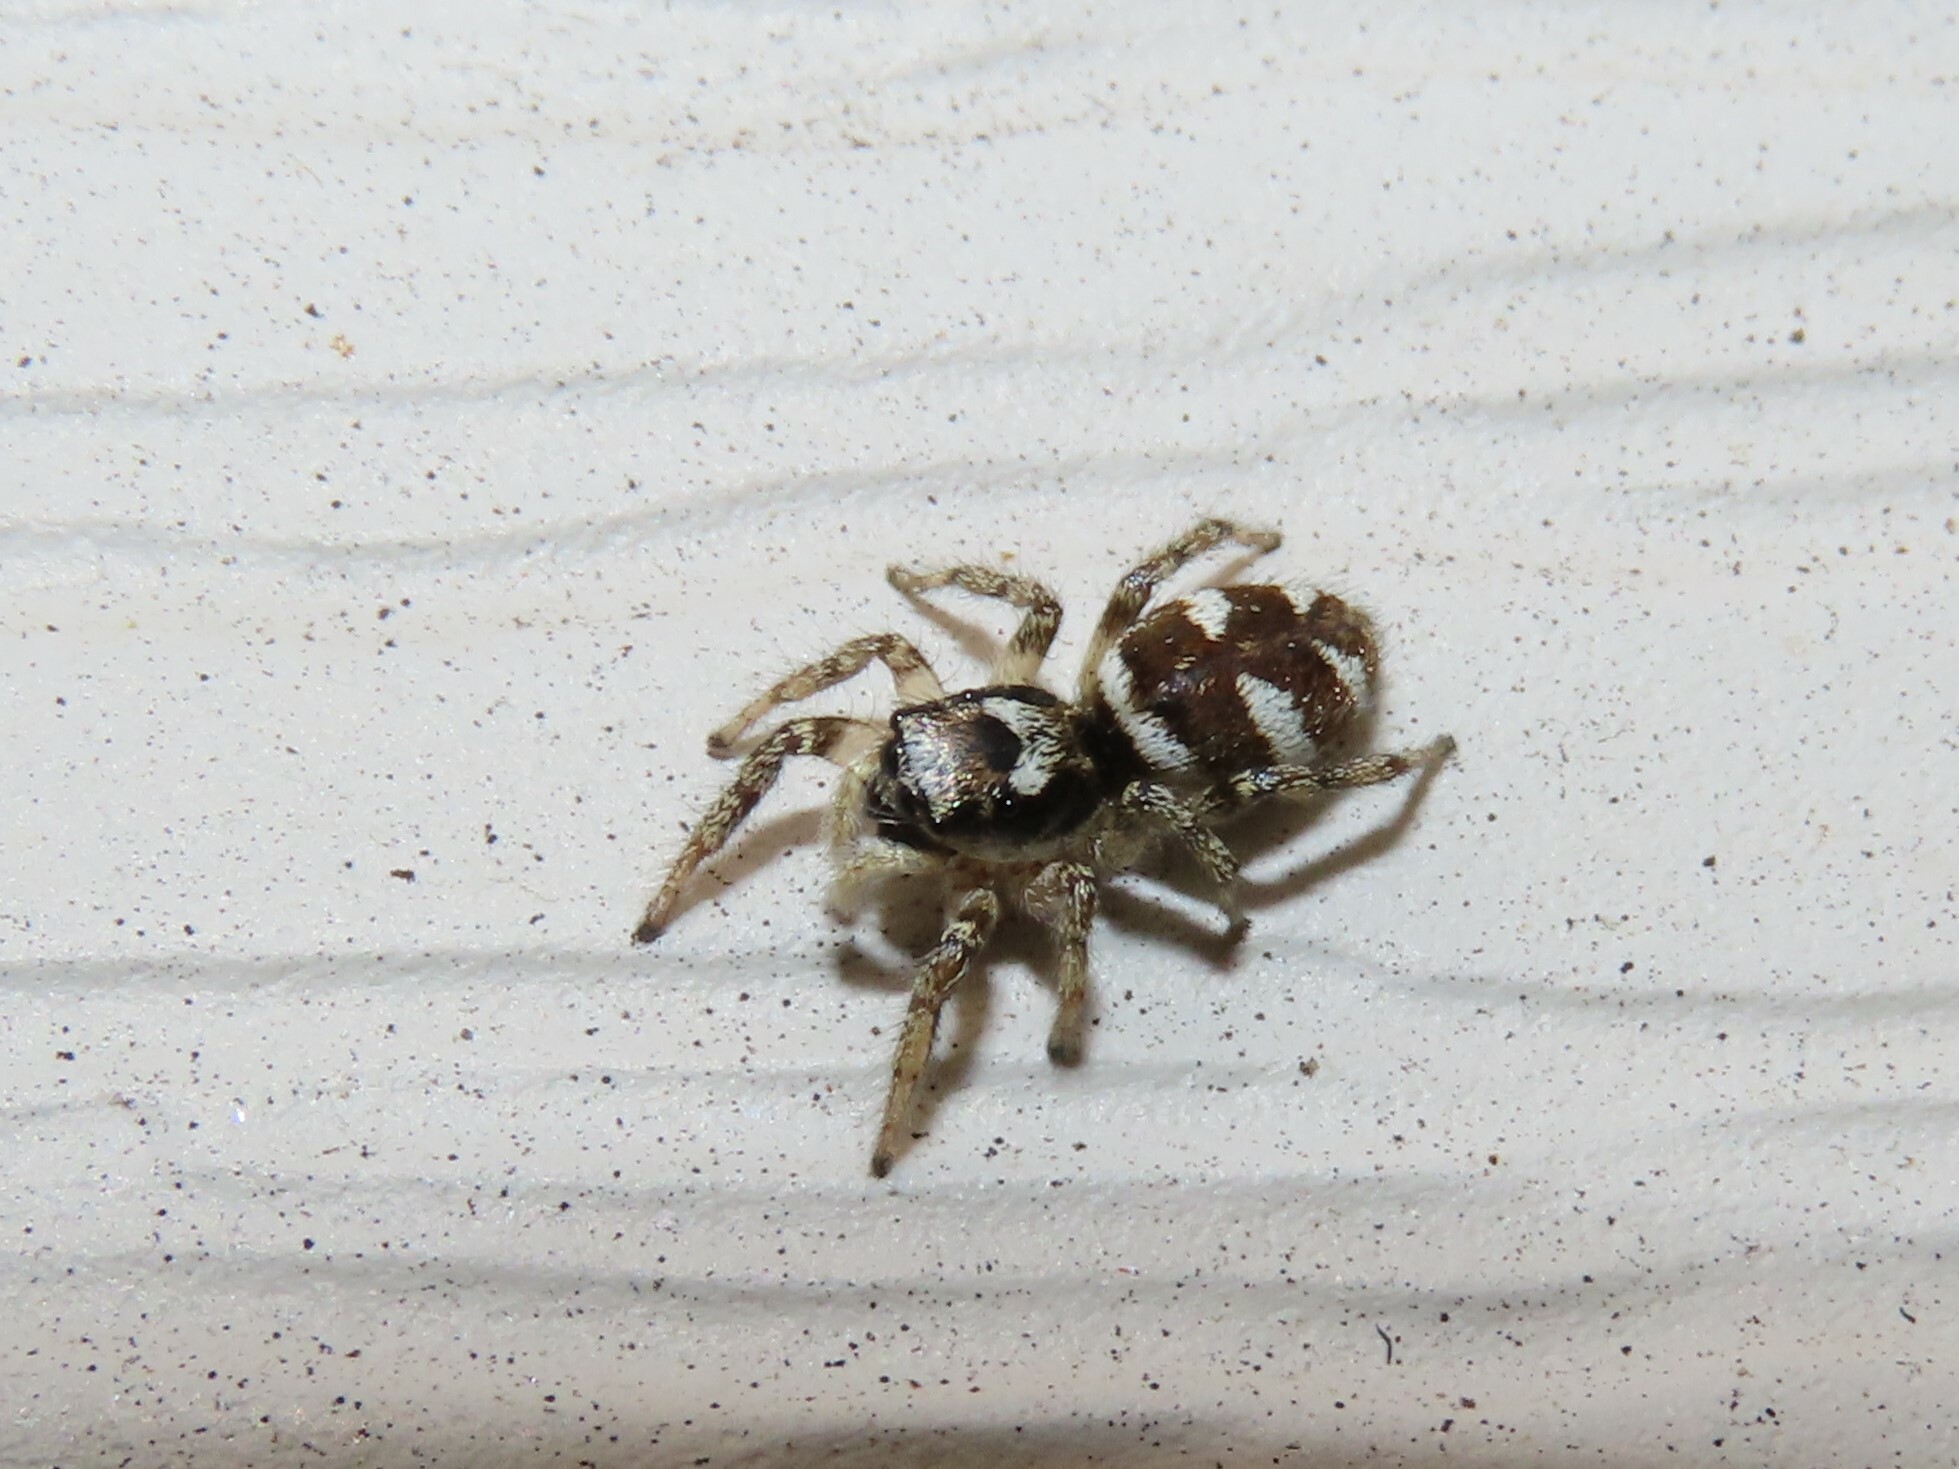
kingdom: Animalia
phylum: Arthropoda
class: Arachnida
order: Araneae
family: Salticidae
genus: Salticus
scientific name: Salticus scenicus
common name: Zebra jumper
